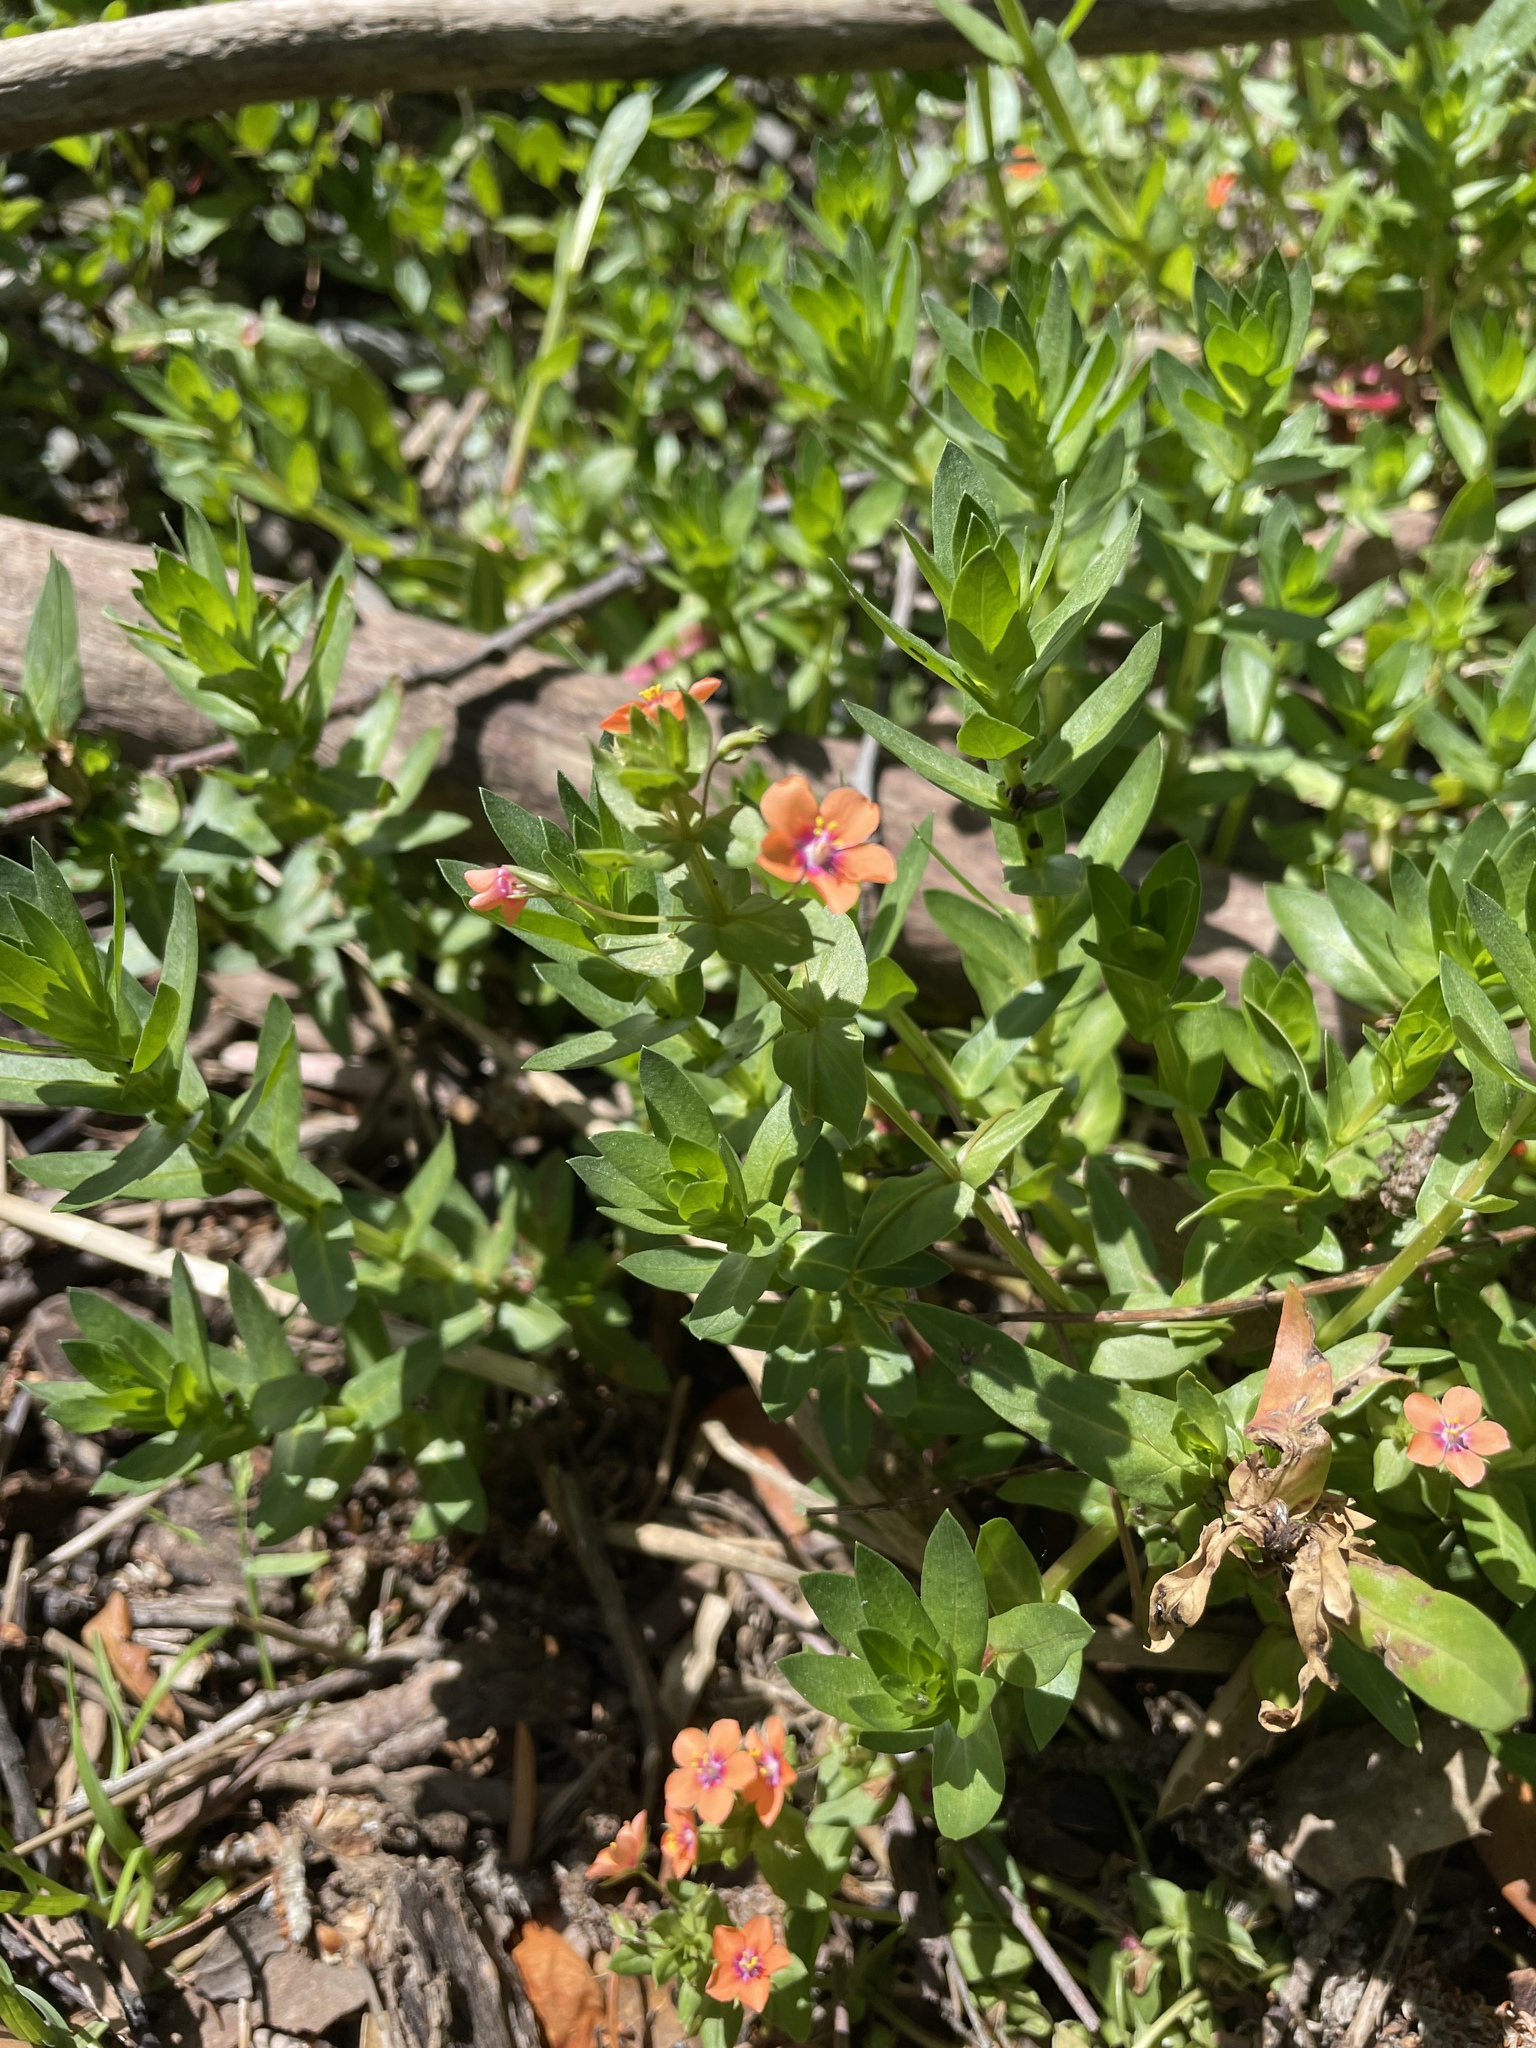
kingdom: Plantae
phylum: Tracheophyta
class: Magnoliopsida
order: Ericales
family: Primulaceae
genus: Lysimachia
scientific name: Lysimachia arvensis
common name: Scarlet pimpernel
